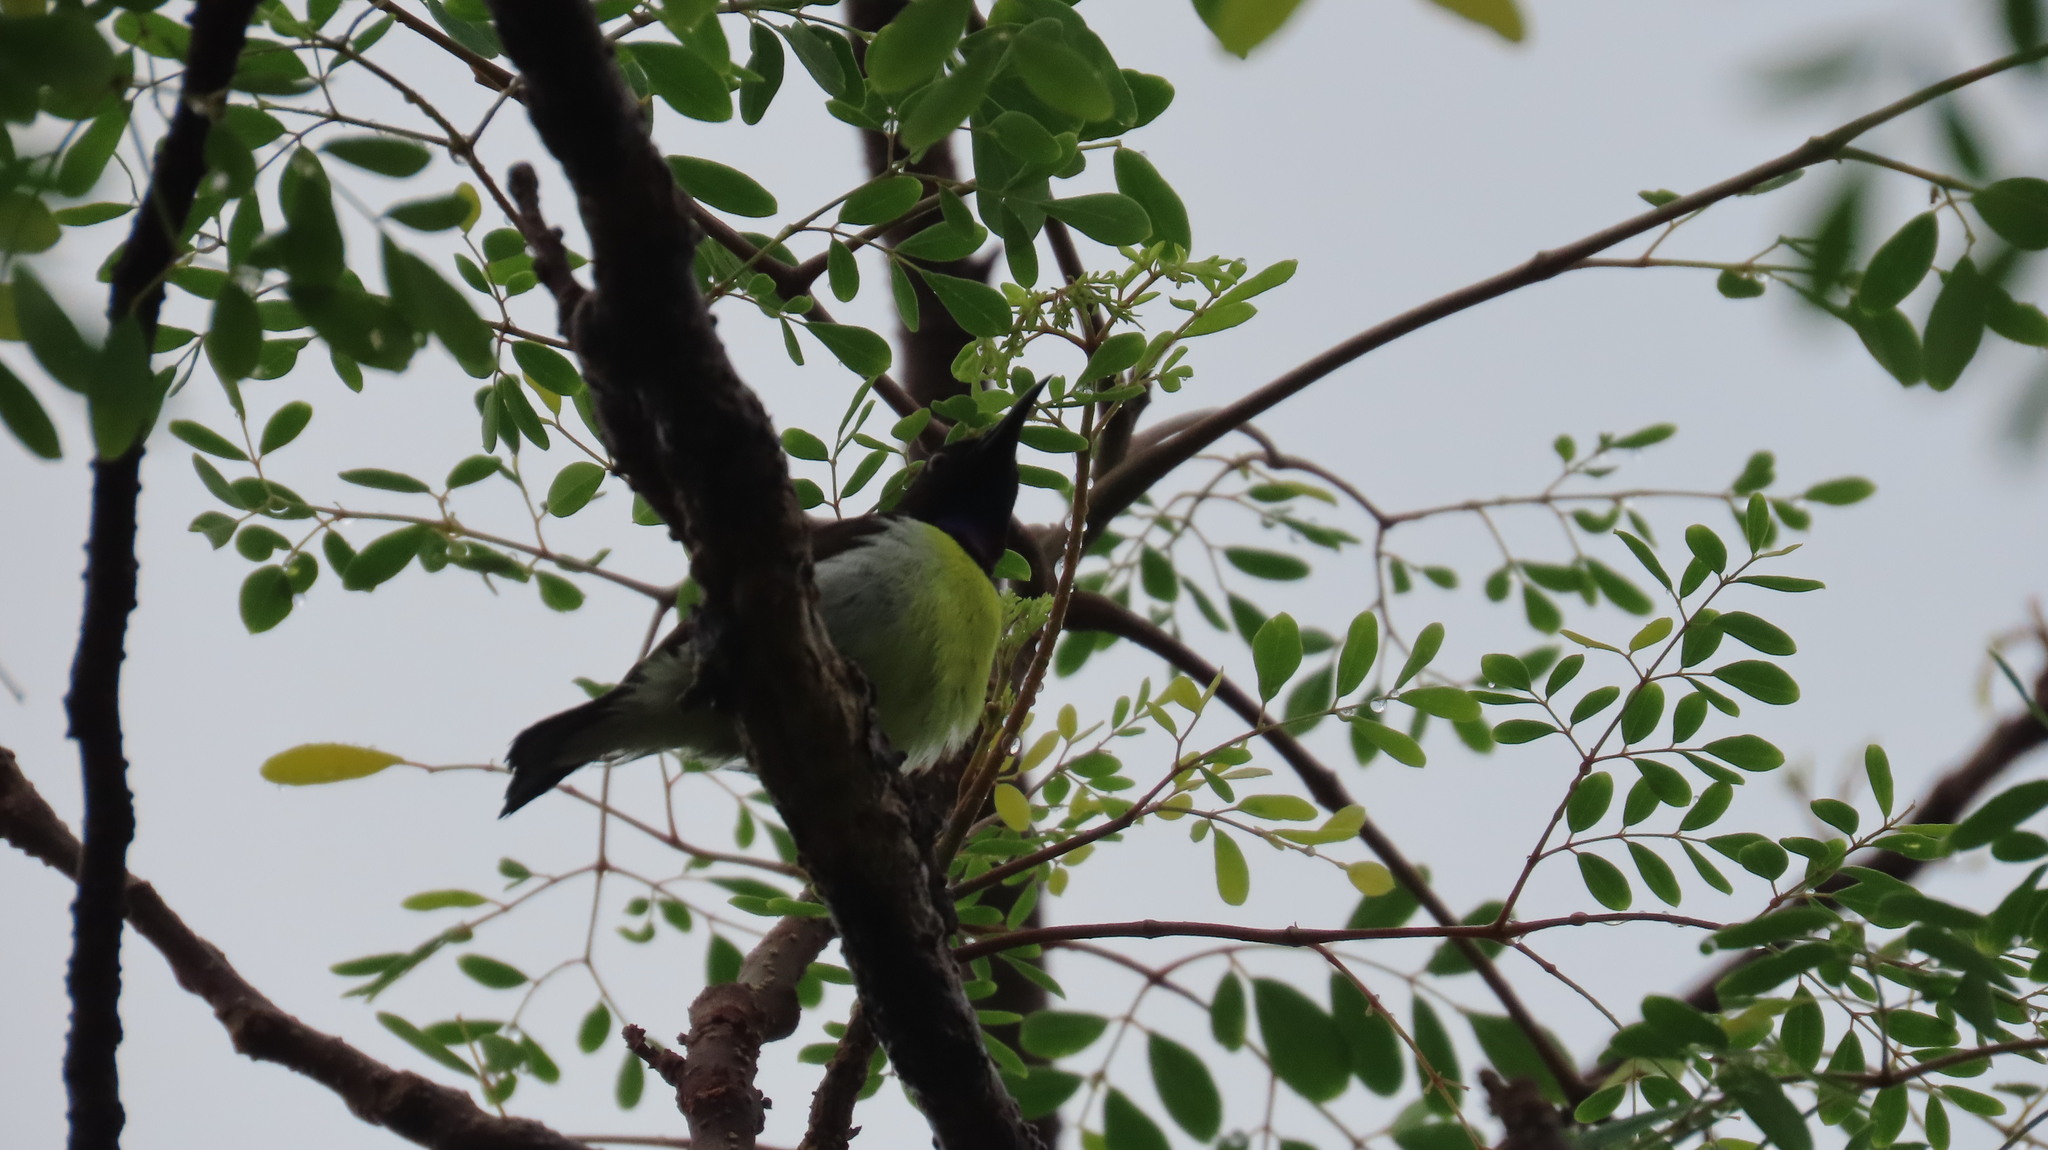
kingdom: Animalia
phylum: Chordata
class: Aves
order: Passeriformes
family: Nectariniidae
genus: Leptocoma
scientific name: Leptocoma zeylonica
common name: Purple-rumped sunbird
